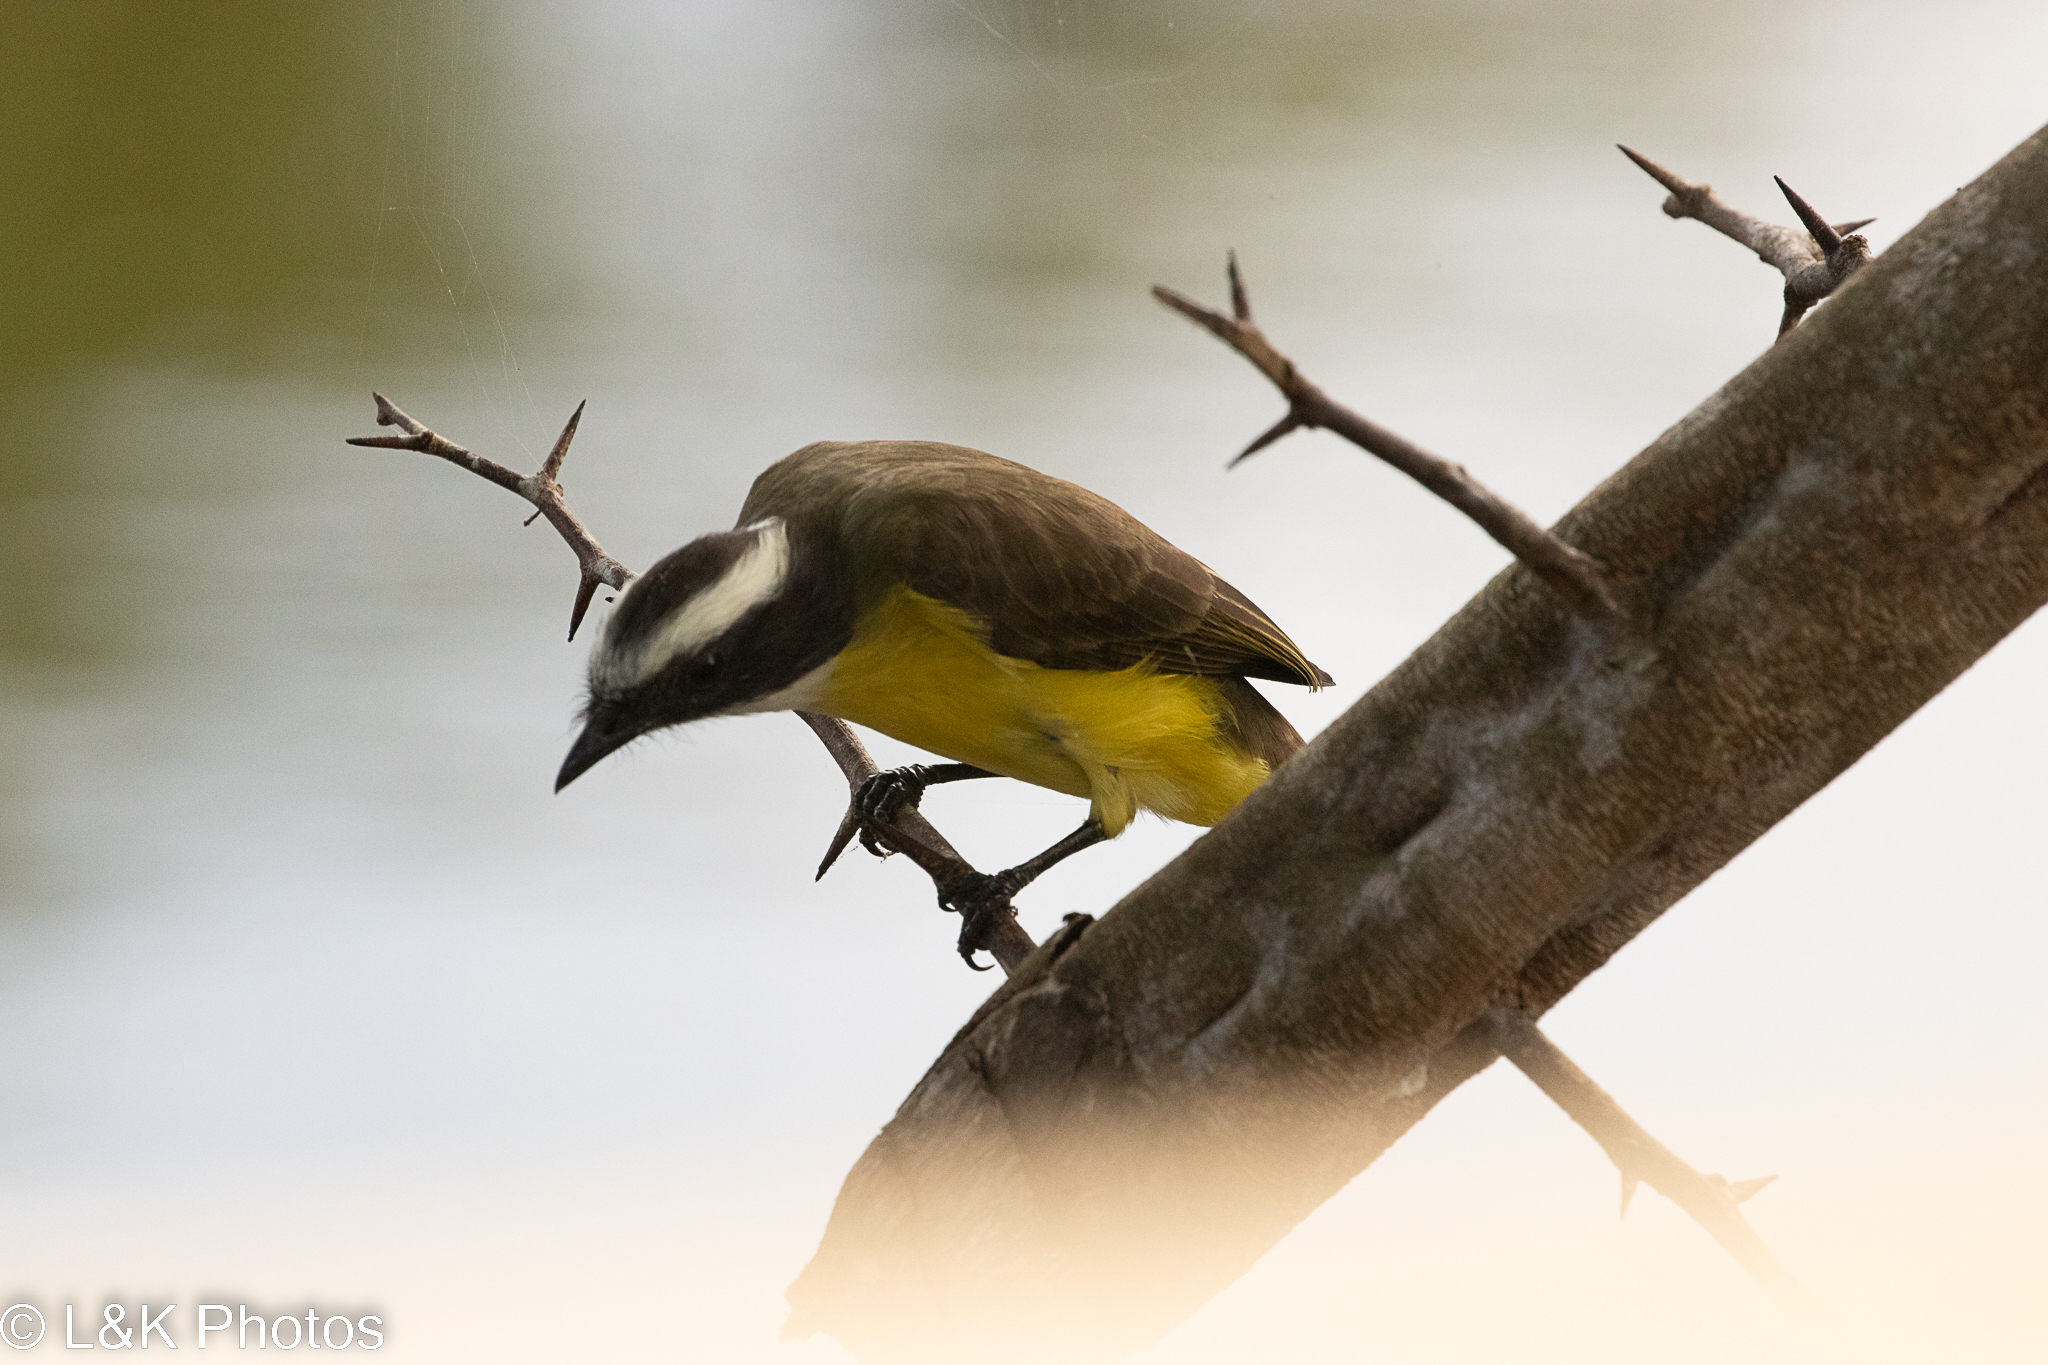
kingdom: Animalia
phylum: Chordata
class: Aves
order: Passeriformes
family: Tyrannidae
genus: Myiozetetes
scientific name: Myiozetetes similis
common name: Social flycatcher
